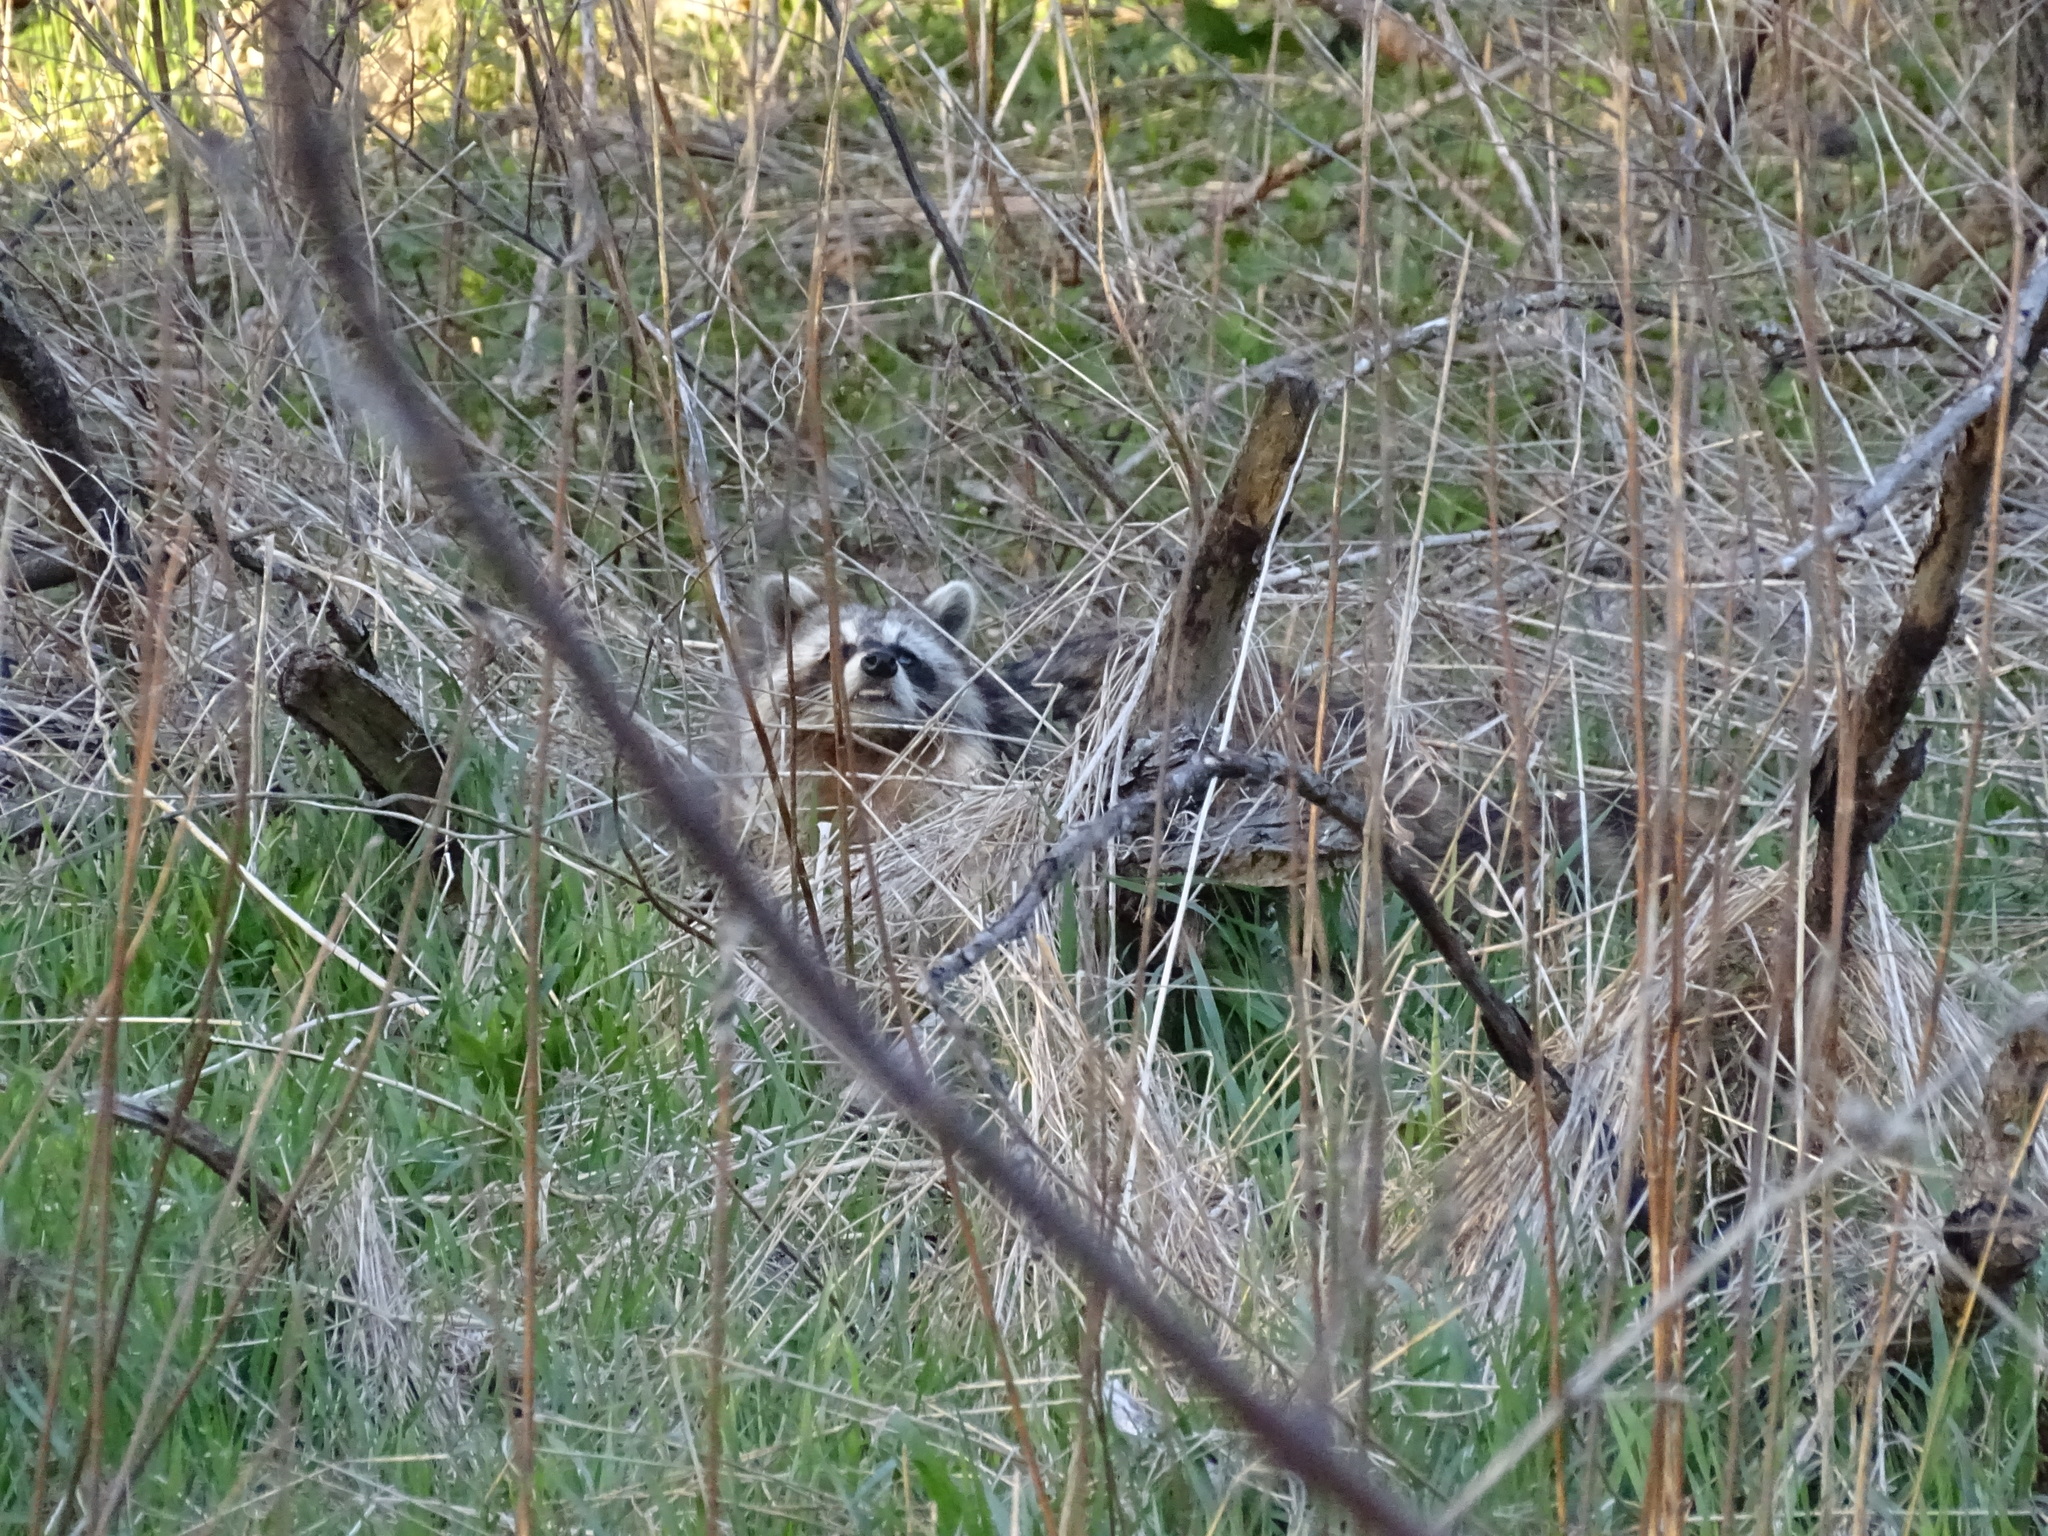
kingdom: Animalia
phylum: Chordata
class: Mammalia
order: Carnivora
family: Procyonidae
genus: Procyon
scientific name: Procyon lotor
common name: Raccoon
